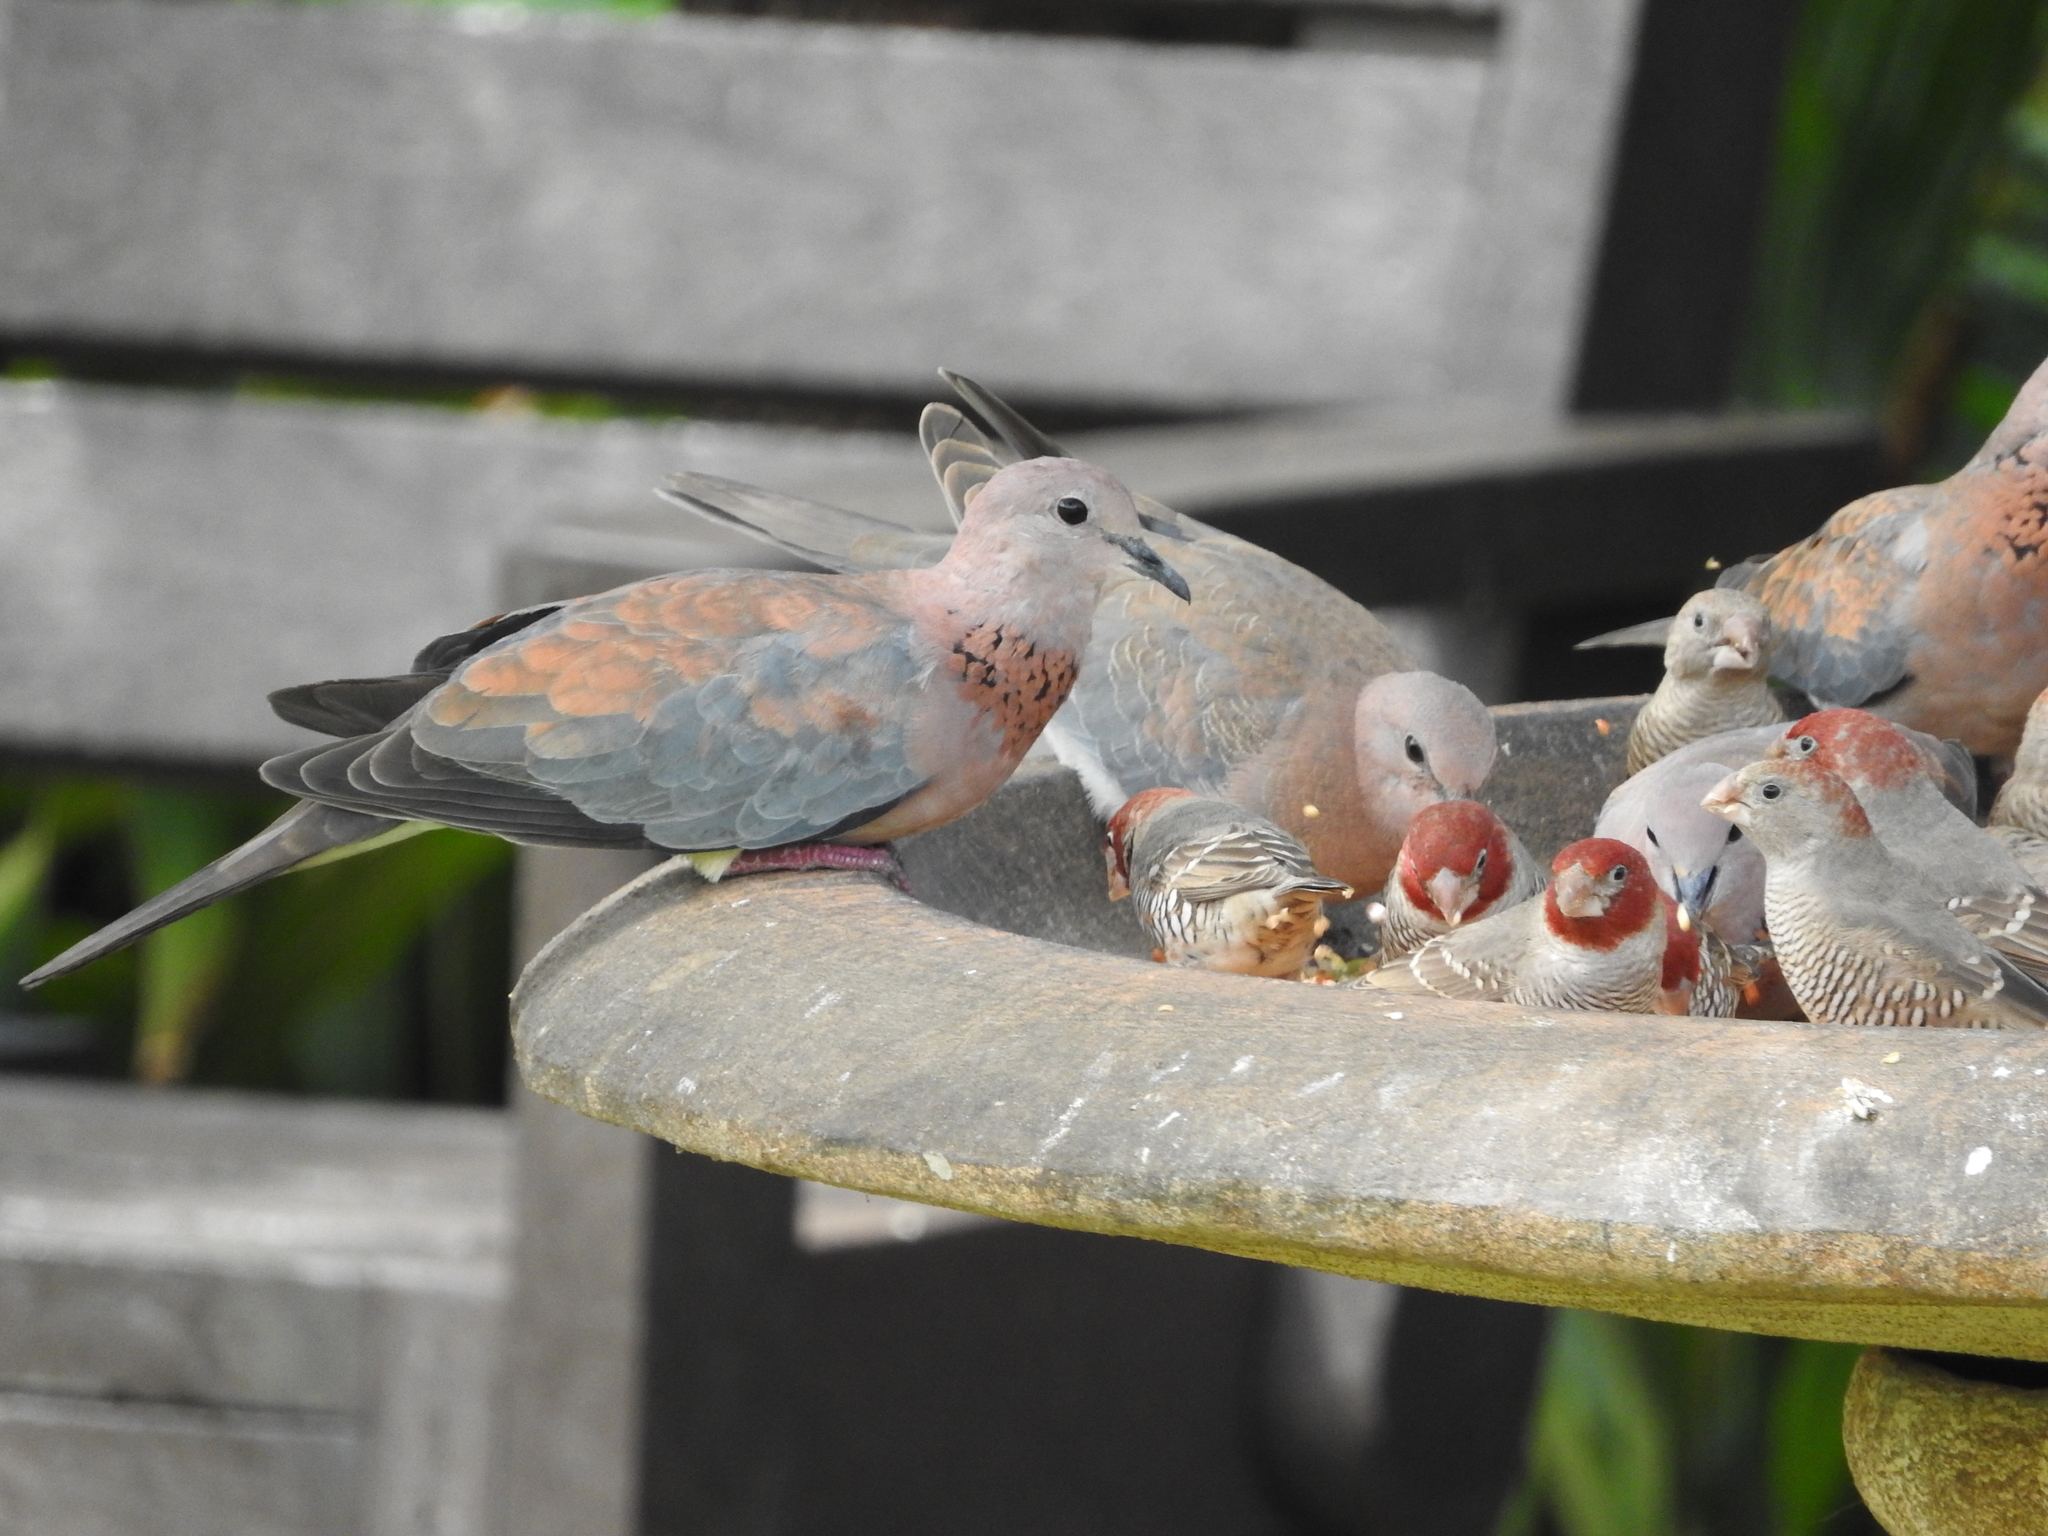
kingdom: Animalia
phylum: Chordata
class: Aves
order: Columbiformes
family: Columbidae
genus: Spilopelia
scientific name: Spilopelia senegalensis
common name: Laughing dove
